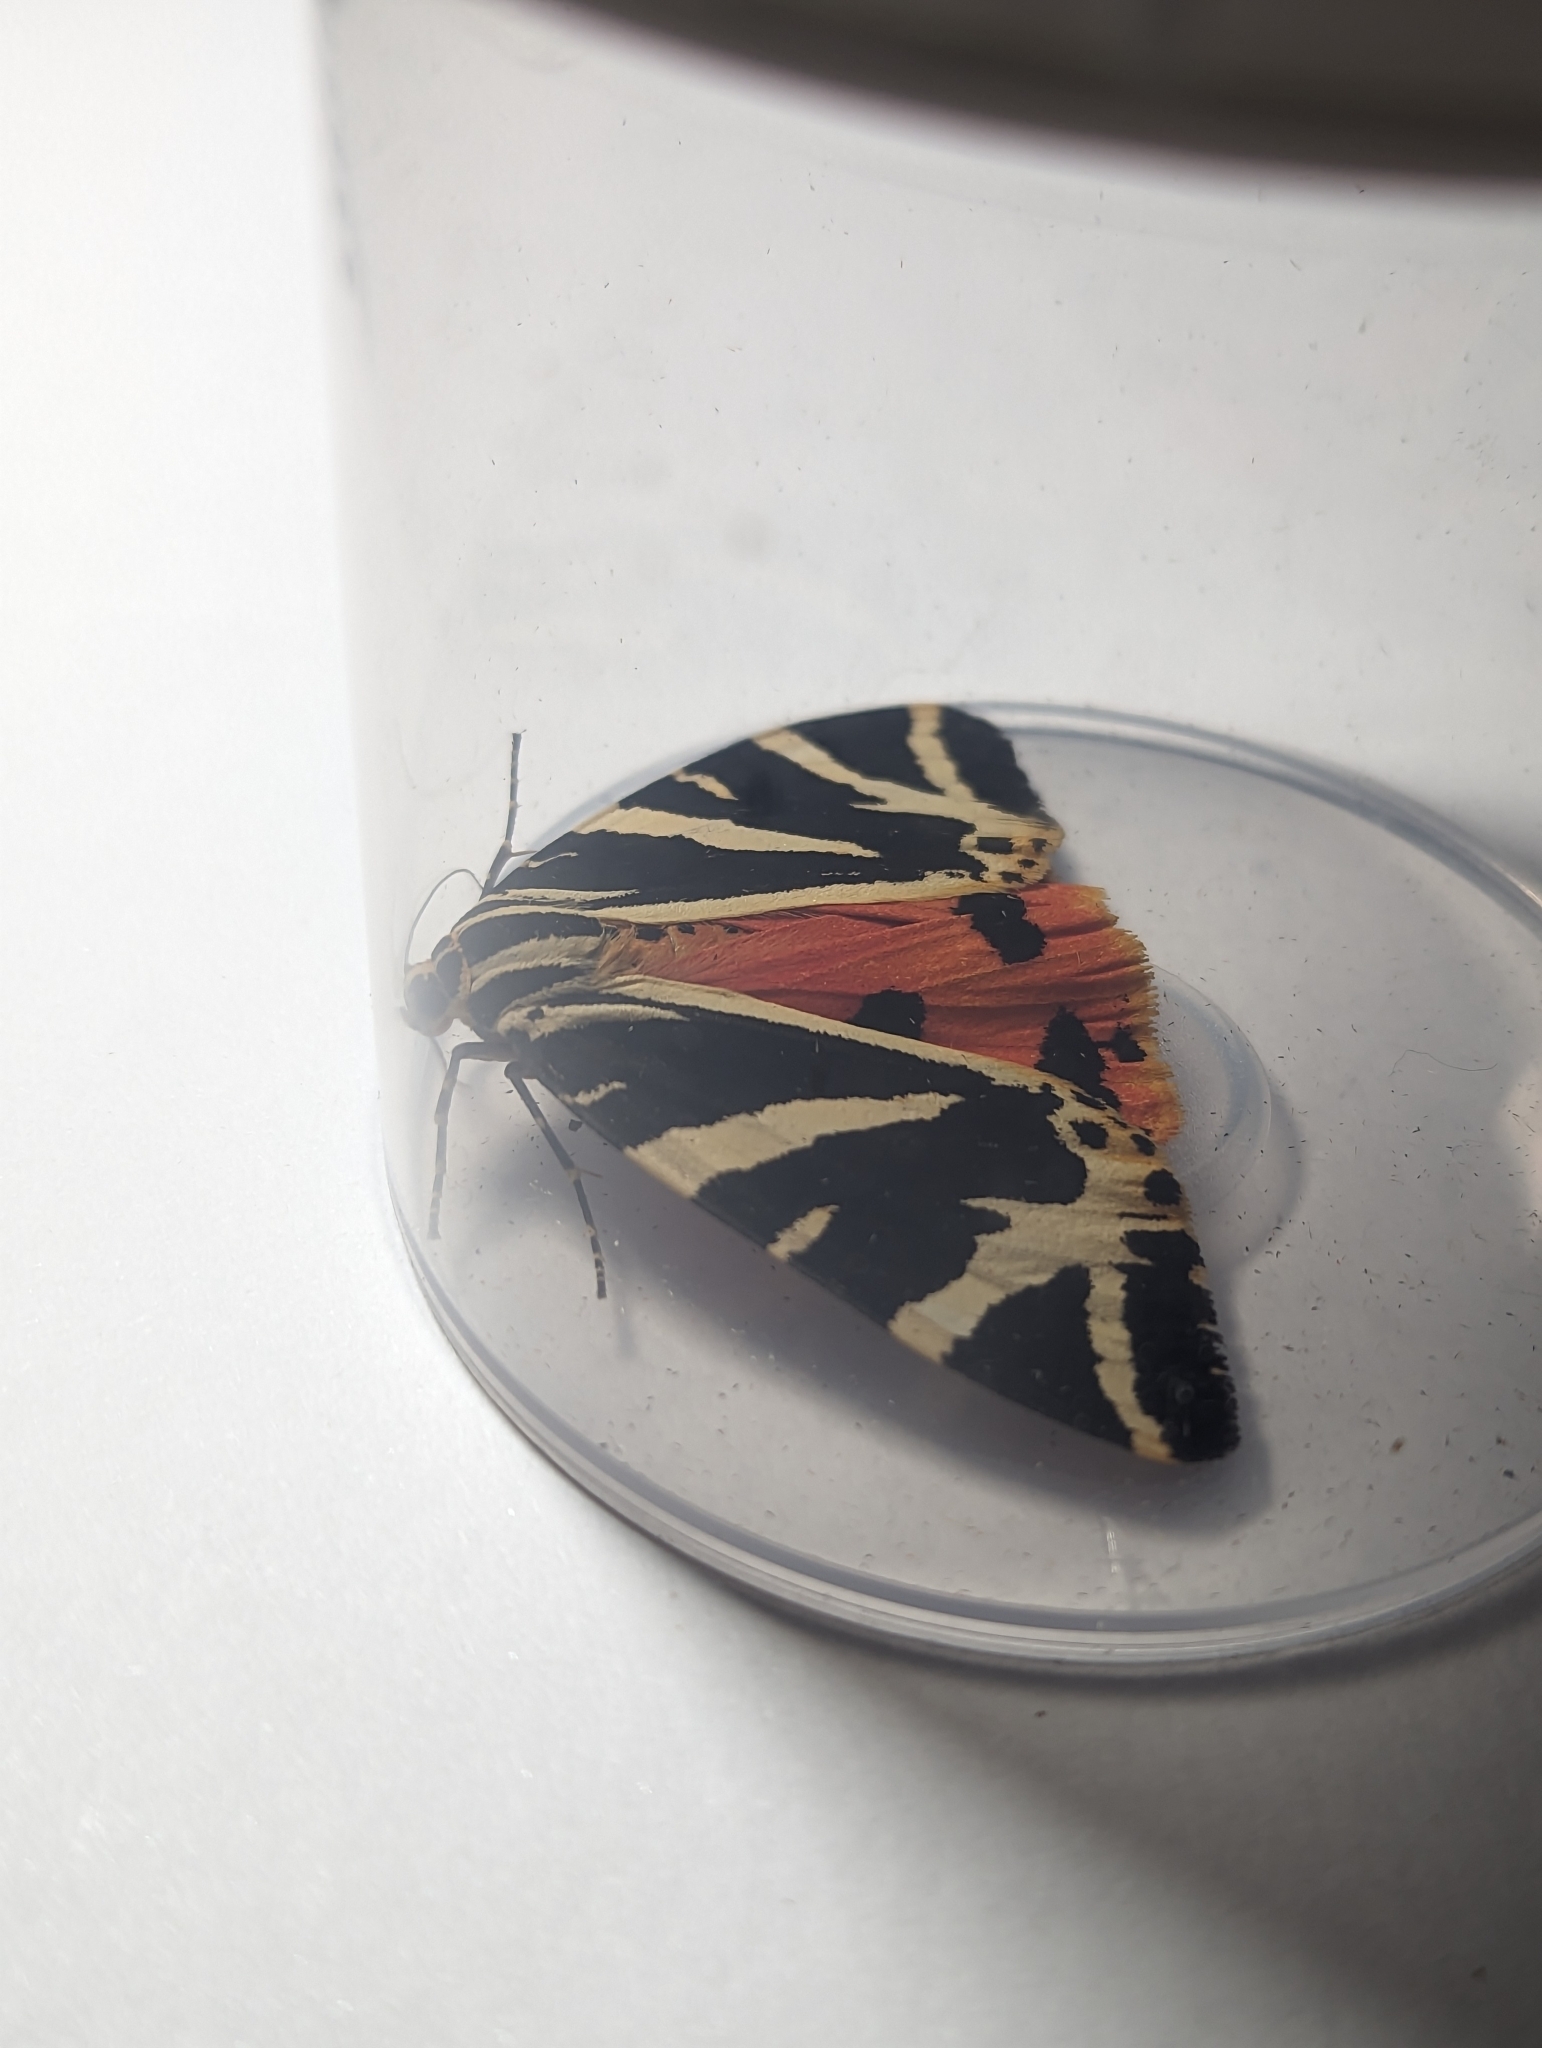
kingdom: Animalia
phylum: Arthropoda
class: Insecta
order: Lepidoptera
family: Erebidae
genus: Euplagia
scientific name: Euplagia quadripunctaria
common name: Jersey tiger
